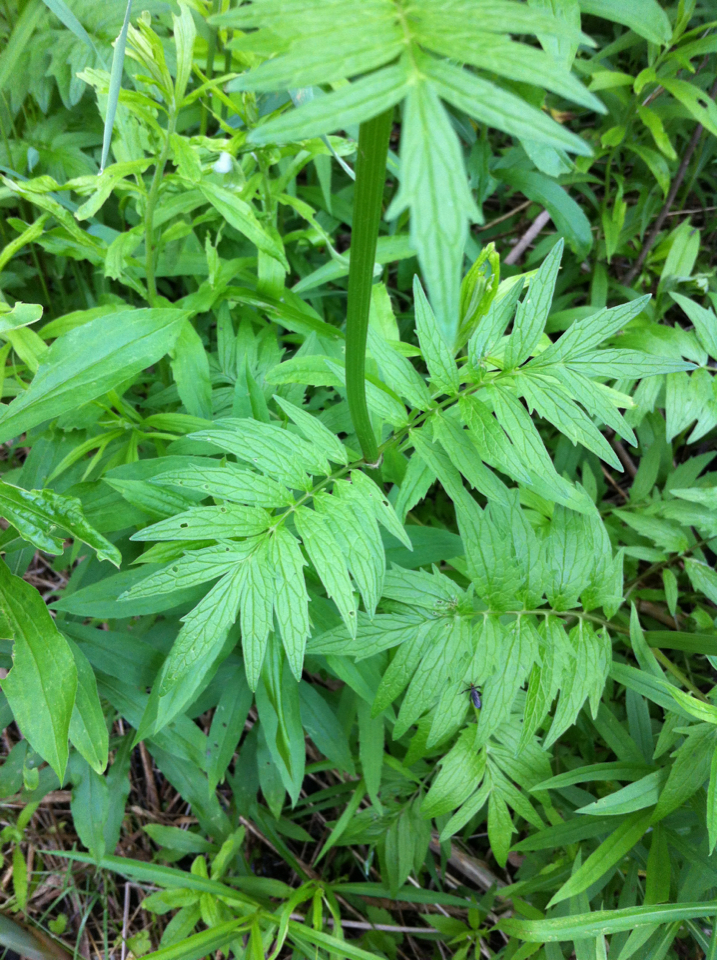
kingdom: Plantae
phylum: Tracheophyta
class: Magnoliopsida
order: Dipsacales
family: Caprifoliaceae
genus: Valeriana
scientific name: Valeriana officinalis
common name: Common valerian
